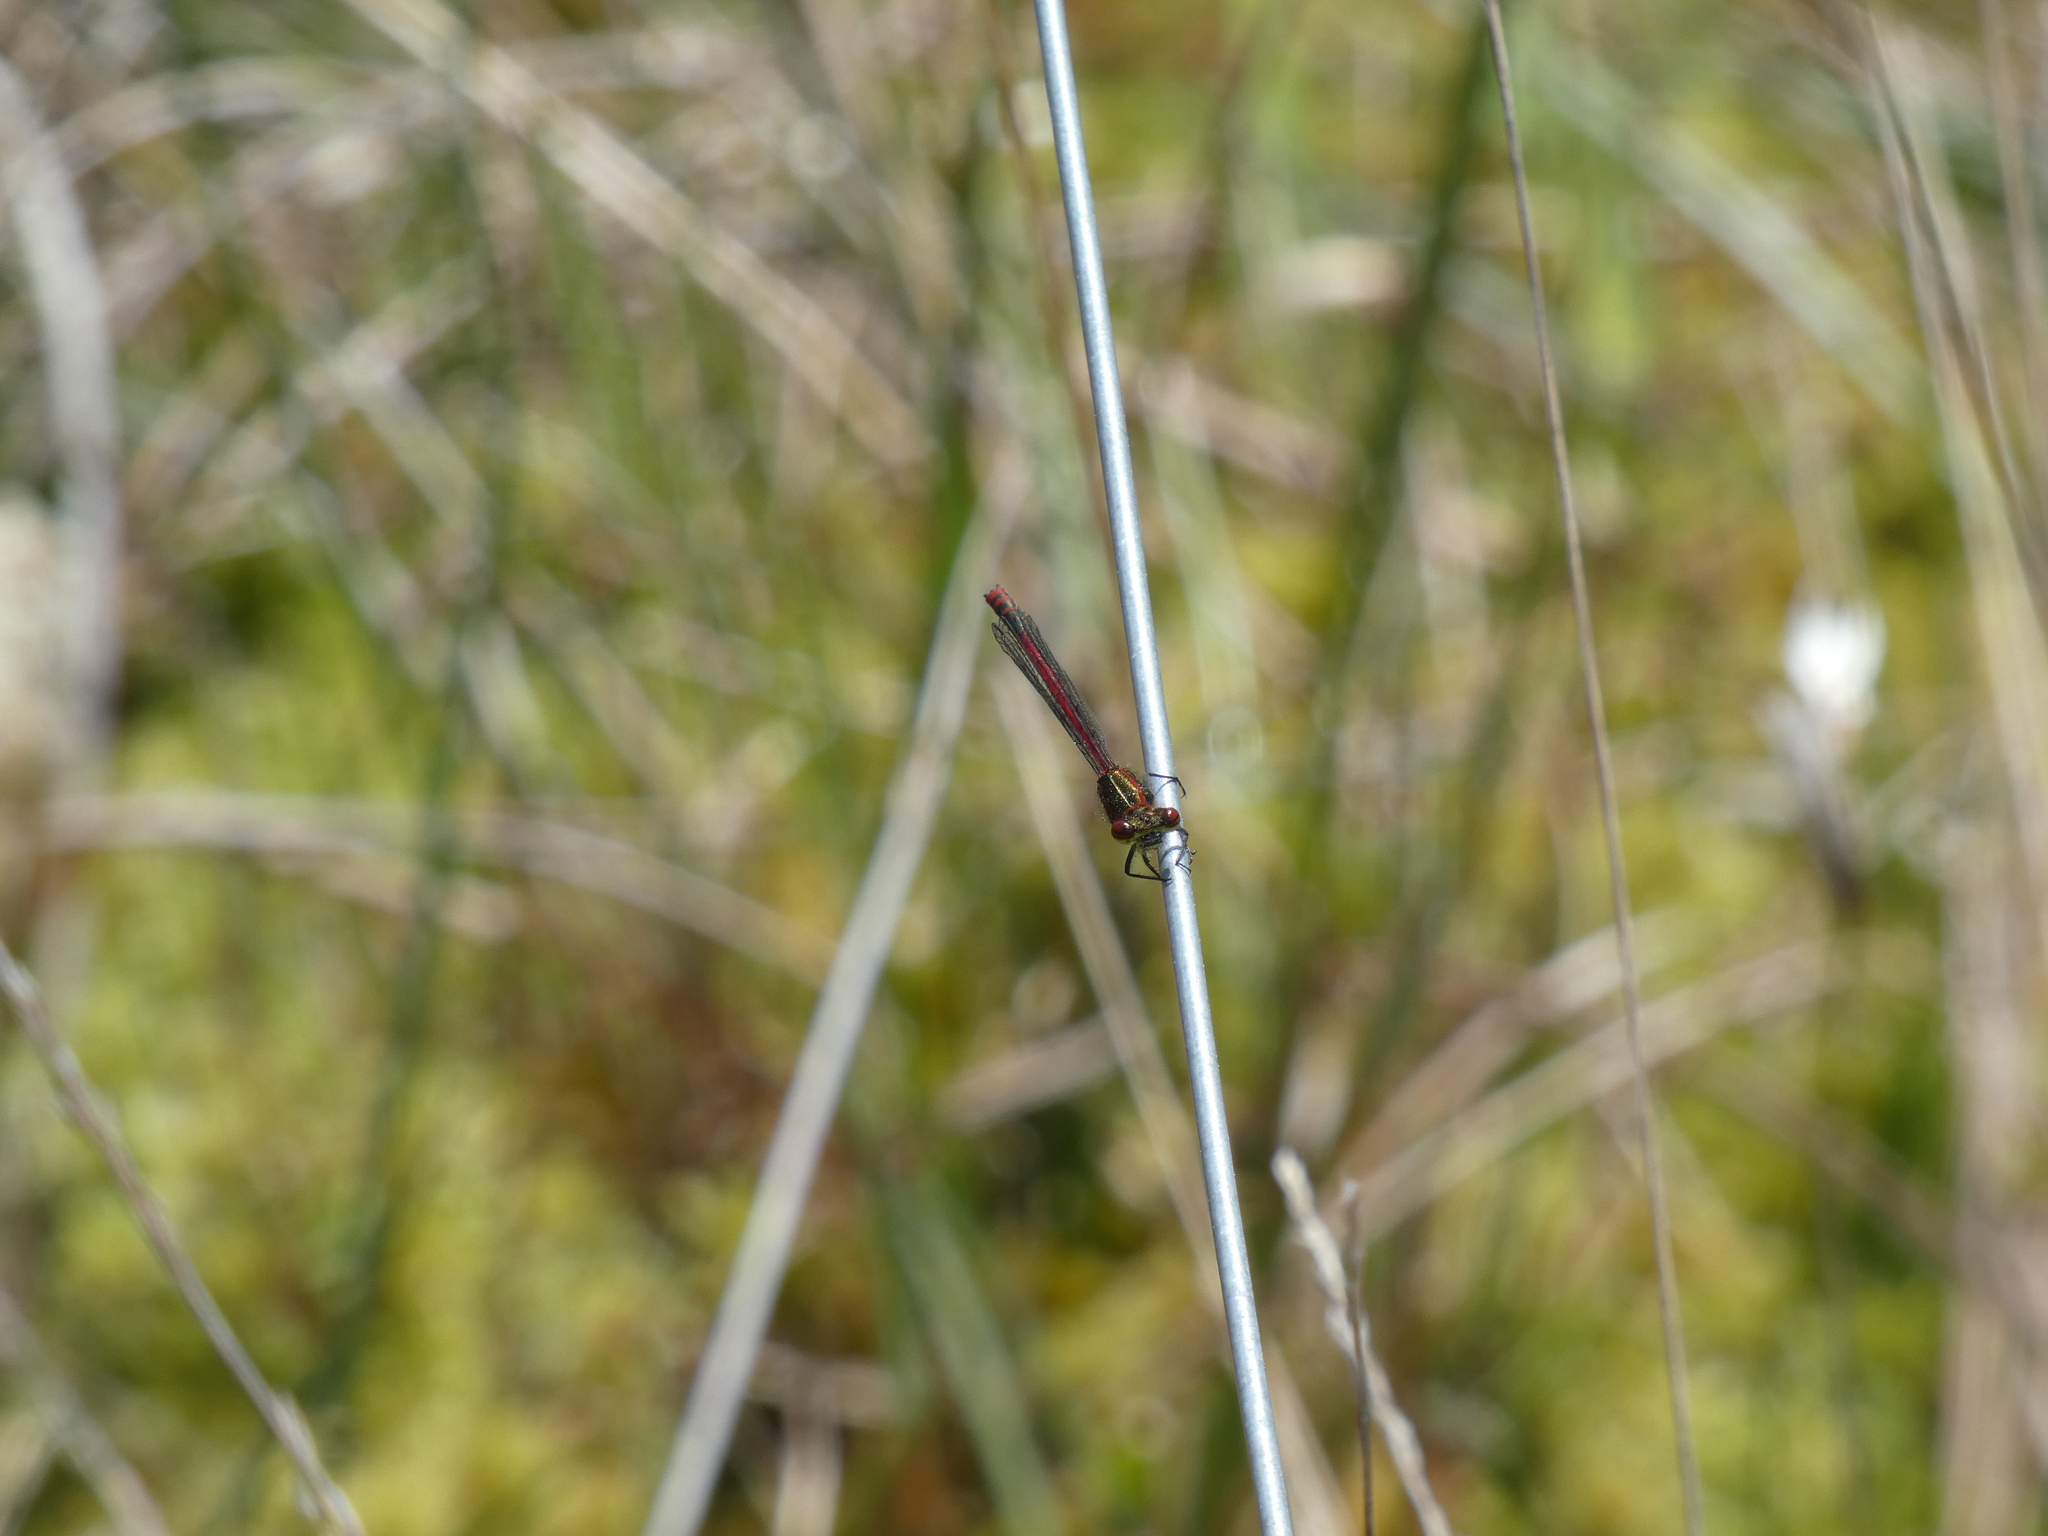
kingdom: Animalia
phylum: Arthropoda
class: Insecta
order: Odonata
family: Coenagrionidae
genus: Pyrrhosoma
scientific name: Pyrrhosoma nymphula
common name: Large red damsel
